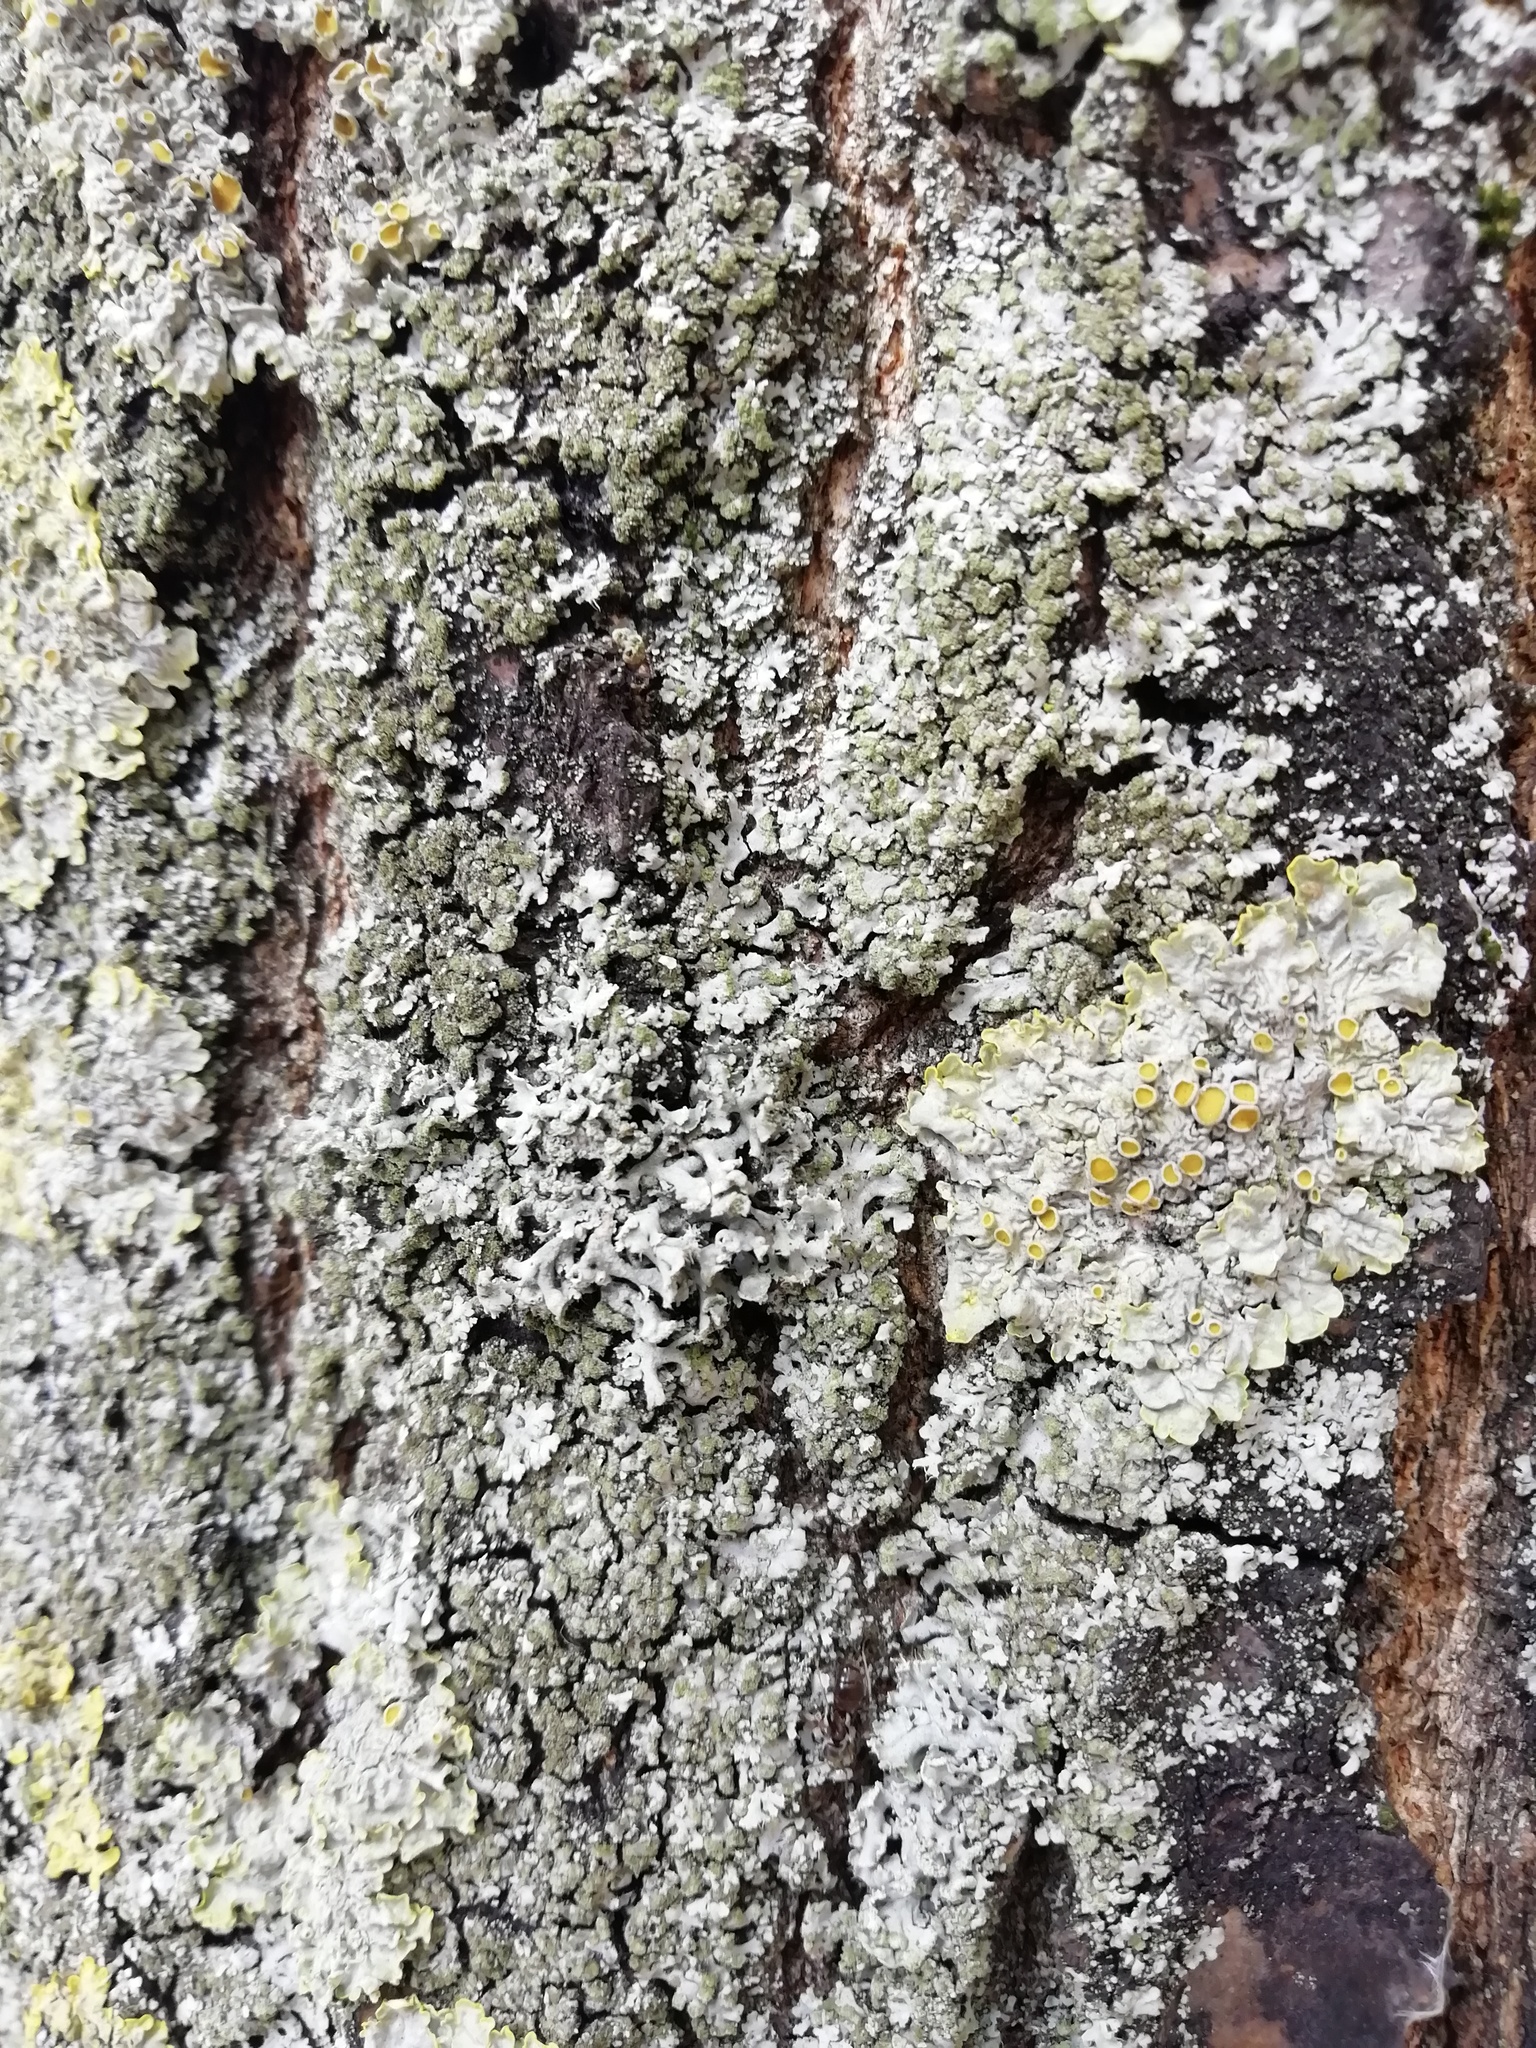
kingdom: Fungi
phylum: Ascomycota
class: Lecanoromycetes
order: Caliciales
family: Physciaceae
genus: Physcia
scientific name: Physcia adscendens
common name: Hooded rosette lichen
